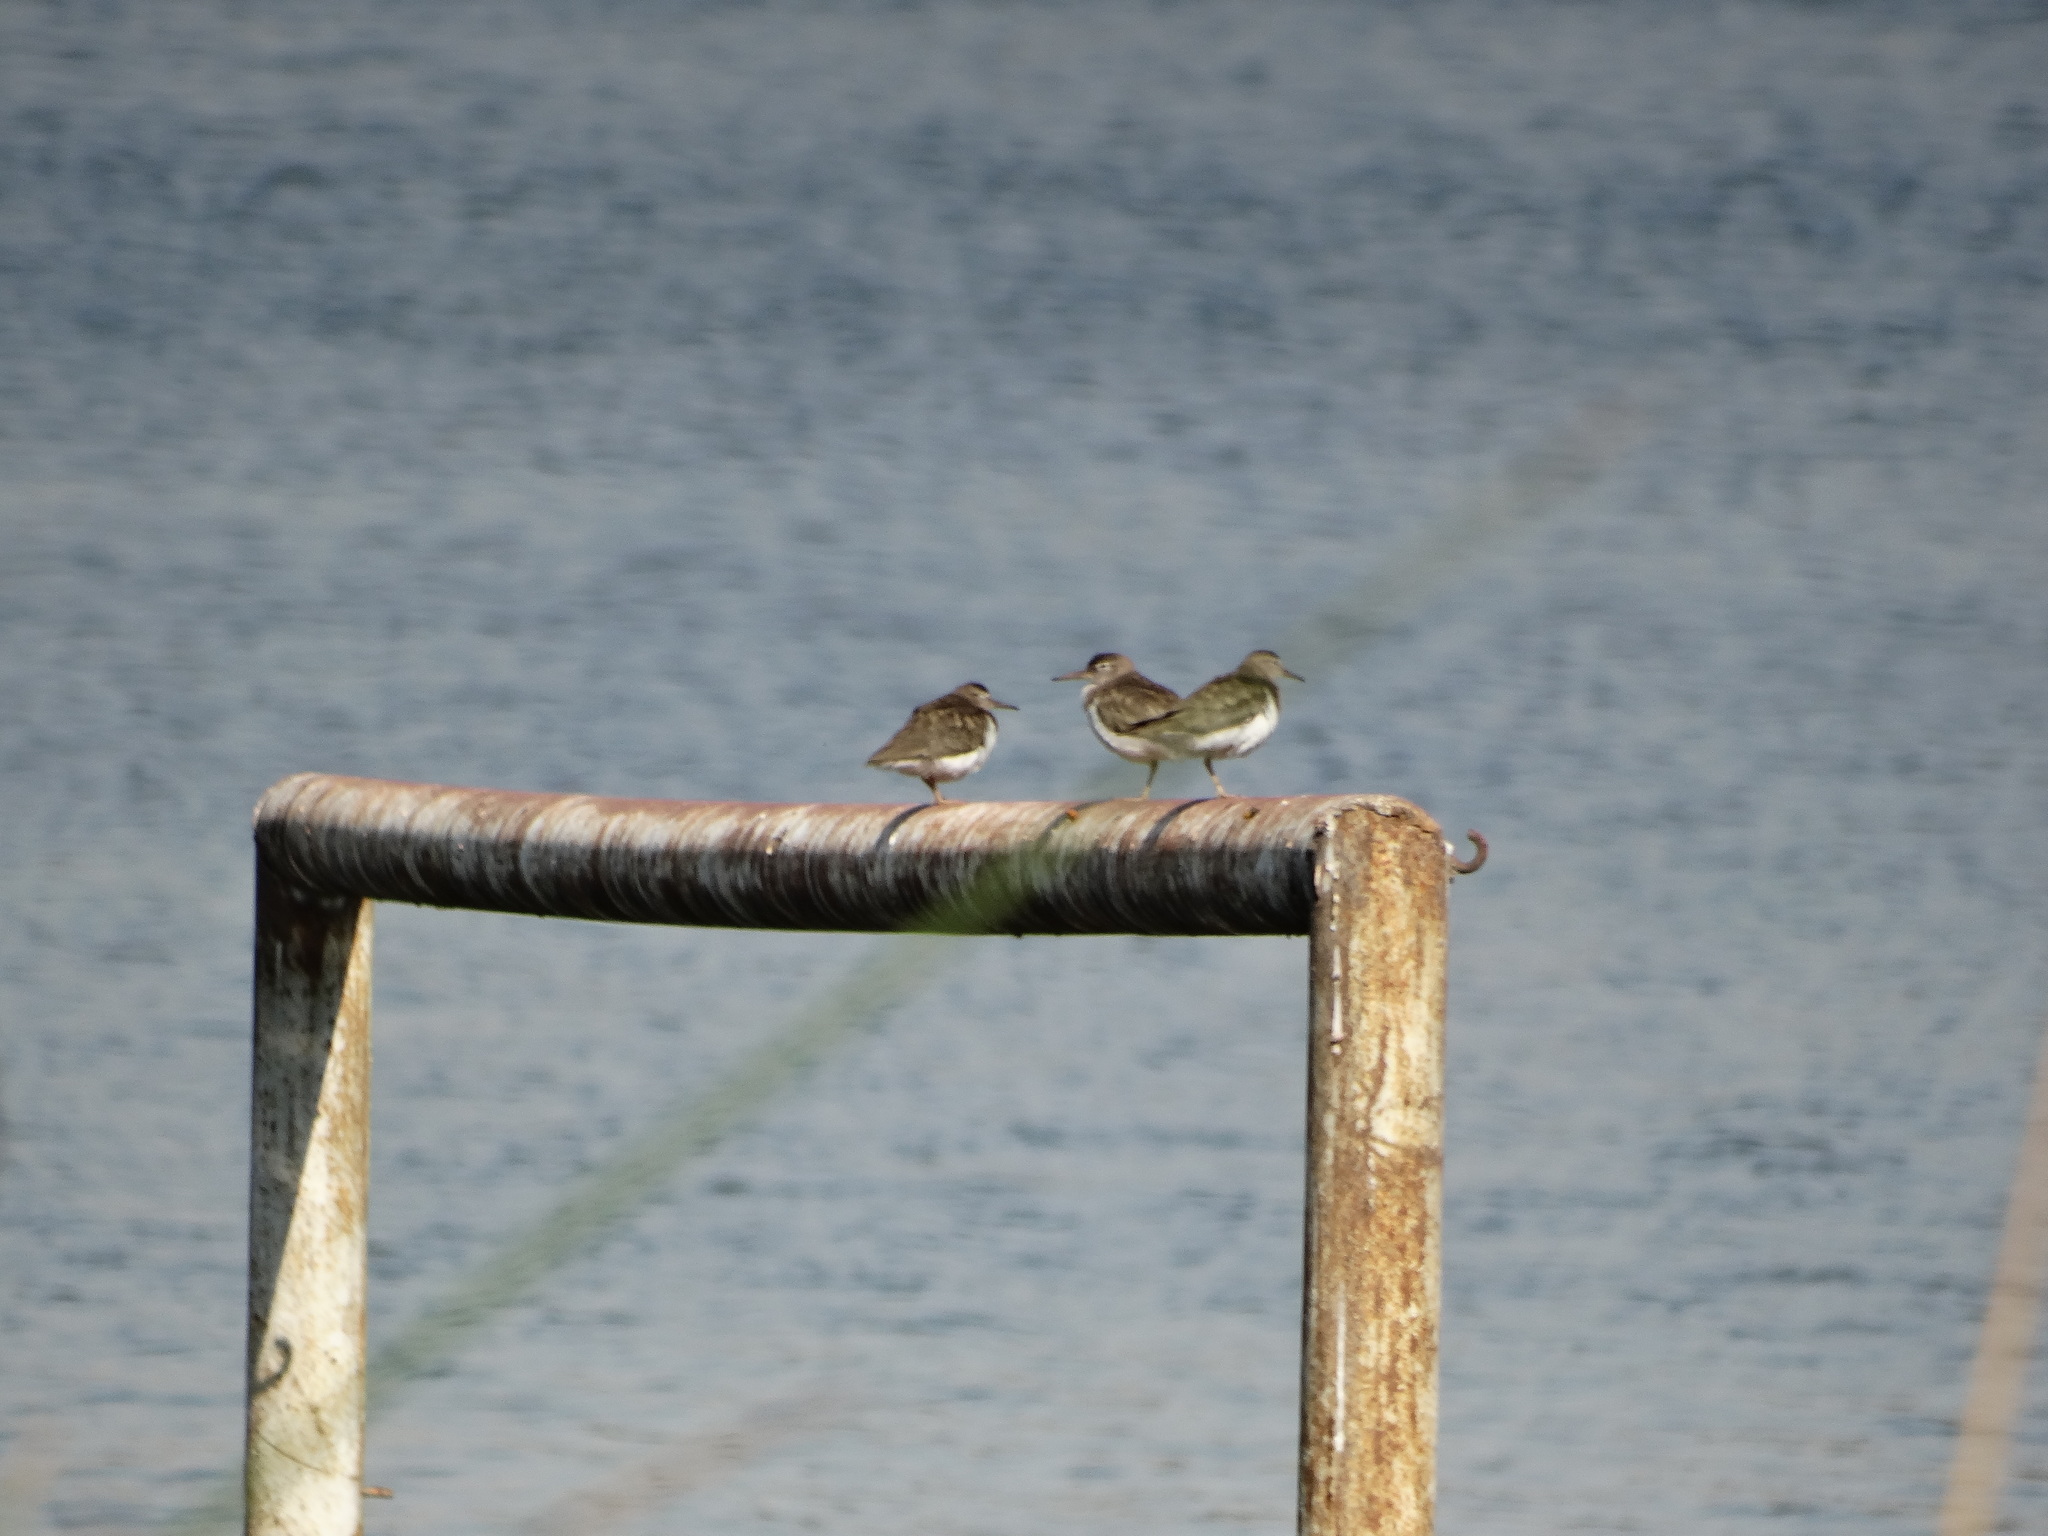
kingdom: Animalia
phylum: Chordata
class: Aves
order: Charadriiformes
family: Scolopacidae
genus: Actitis
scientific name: Actitis macularius
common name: Spotted sandpiper
